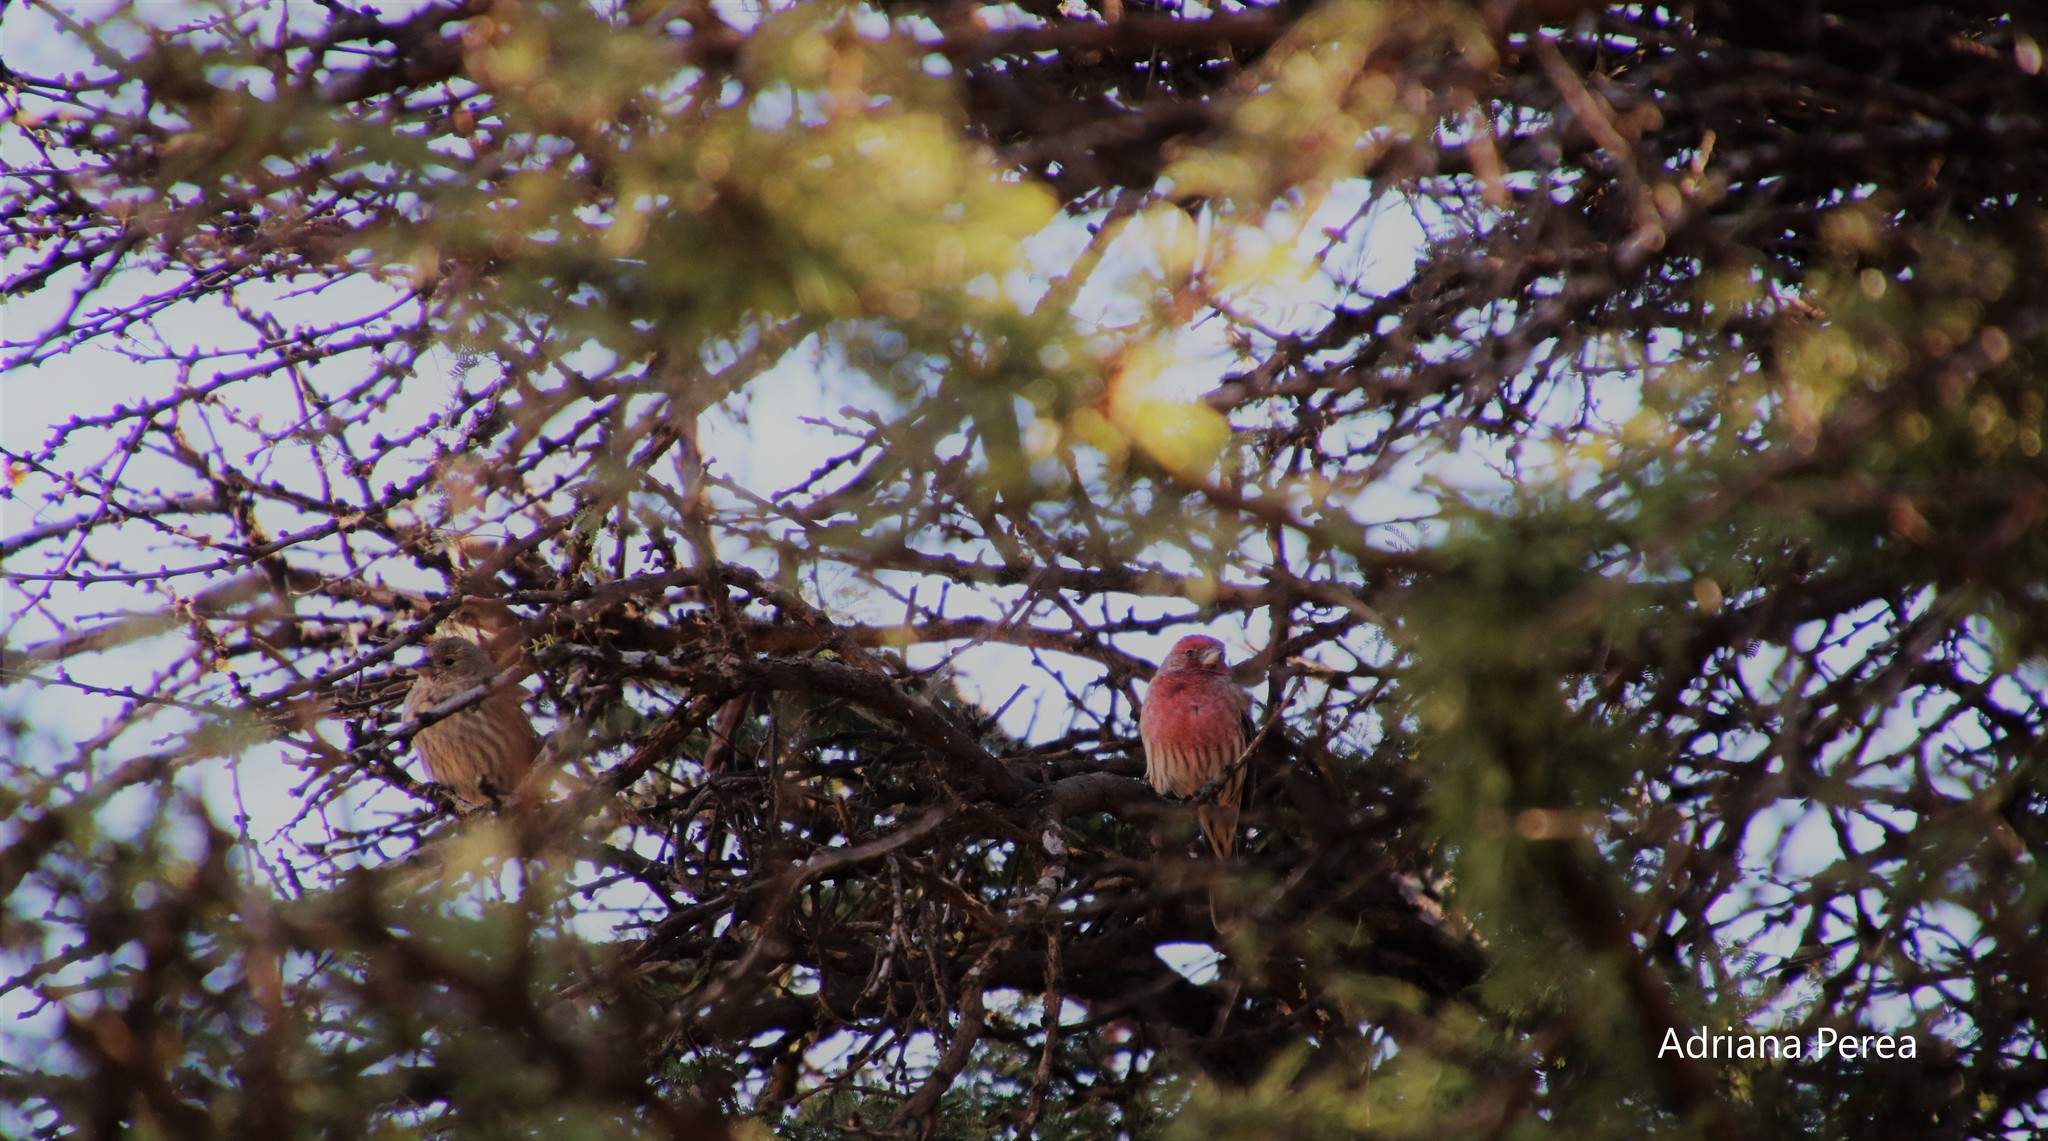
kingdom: Animalia
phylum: Chordata
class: Aves
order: Passeriformes
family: Fringillidae
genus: Haemorhous
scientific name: Haemorhous mexicanus
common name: House finch
